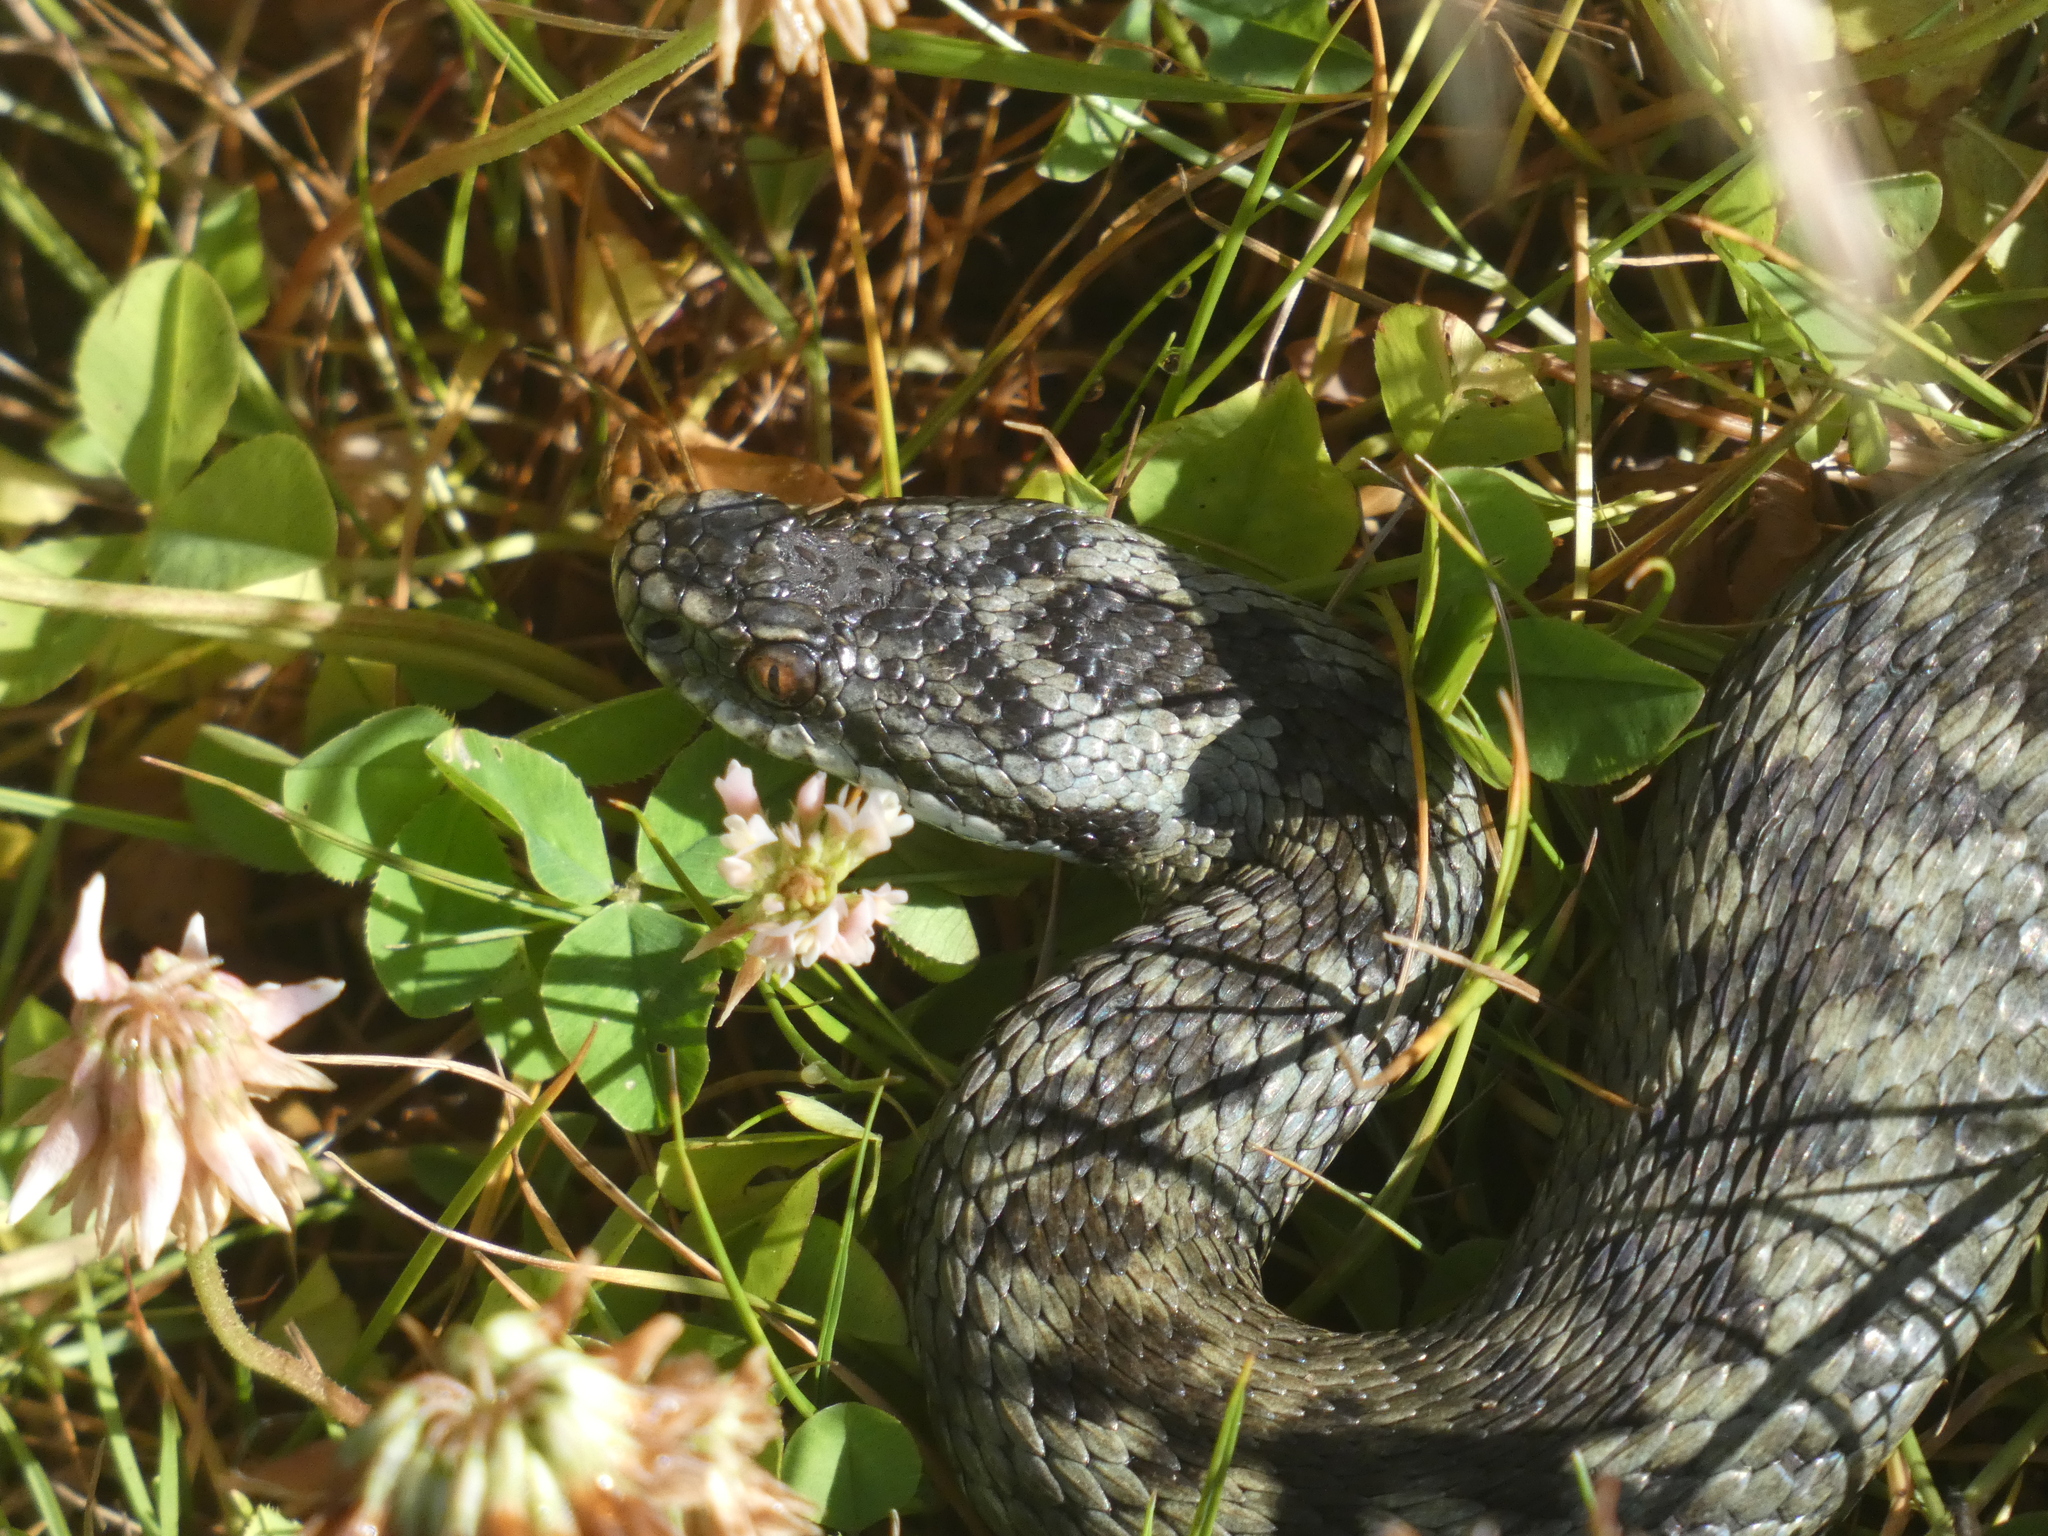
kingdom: Animalia
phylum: Chordata
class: Squamata
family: Viperidae
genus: Vipera
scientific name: Vipera berus
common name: Adder
